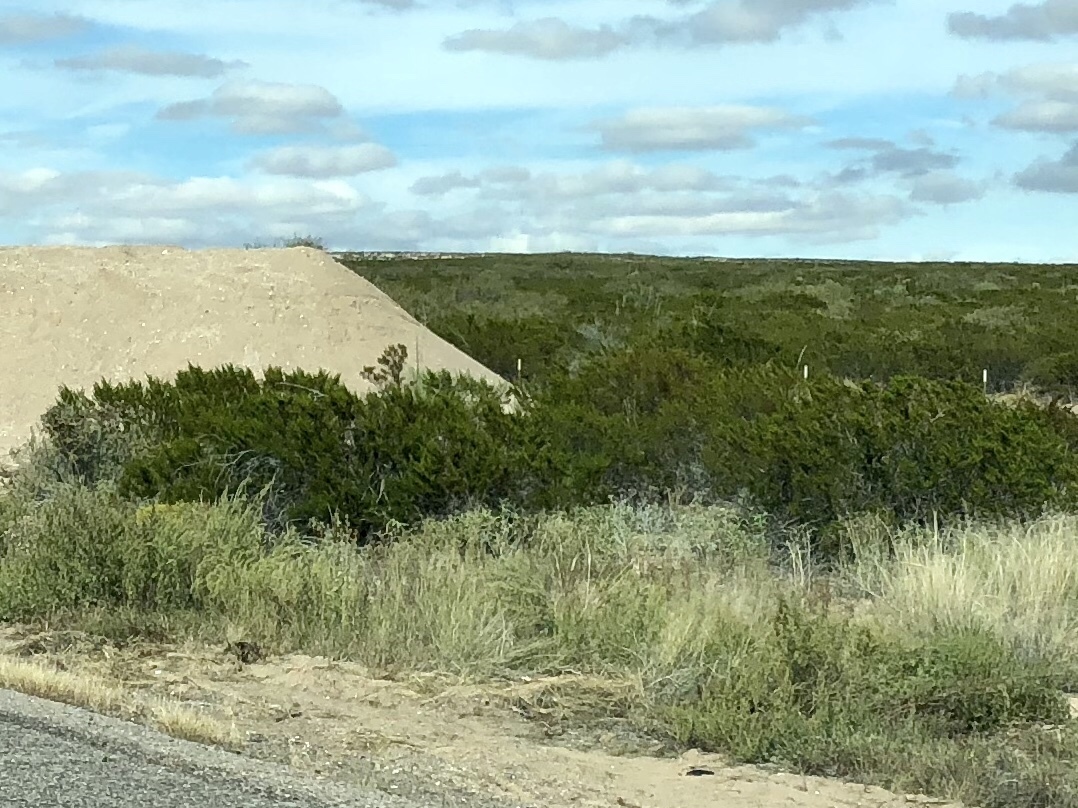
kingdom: Plantae
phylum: Tracheophyta
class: Magnoliopsida
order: Zygophyllales
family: Zygophyllaceae
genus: Larrea
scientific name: Larrea tridentata
